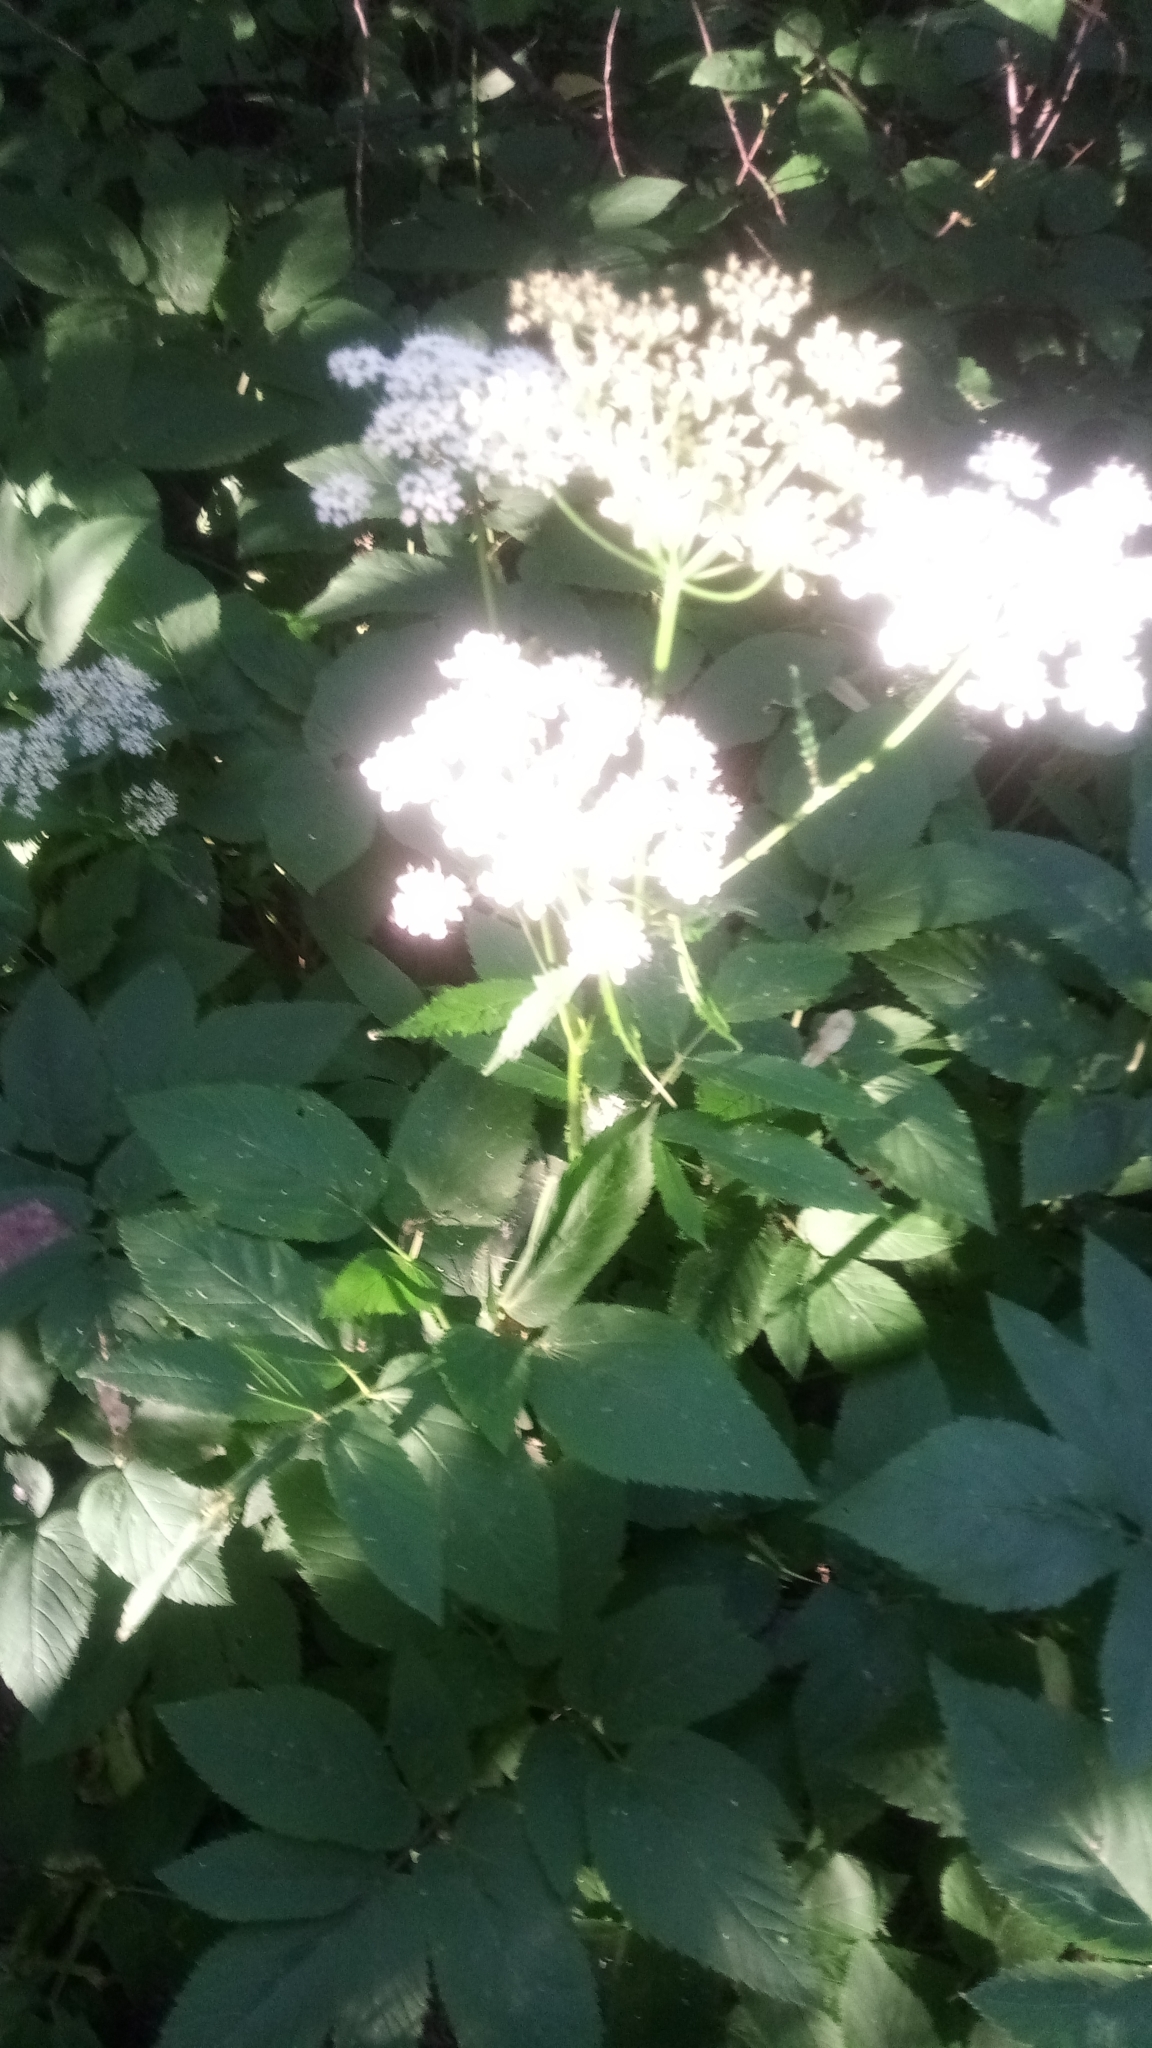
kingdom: Plantae
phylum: Tracheophyta
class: Magnoliopsida
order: Apiales
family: Apiaceae
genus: Aegopodium
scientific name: Aegopodium podagraria
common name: Ground-elder
